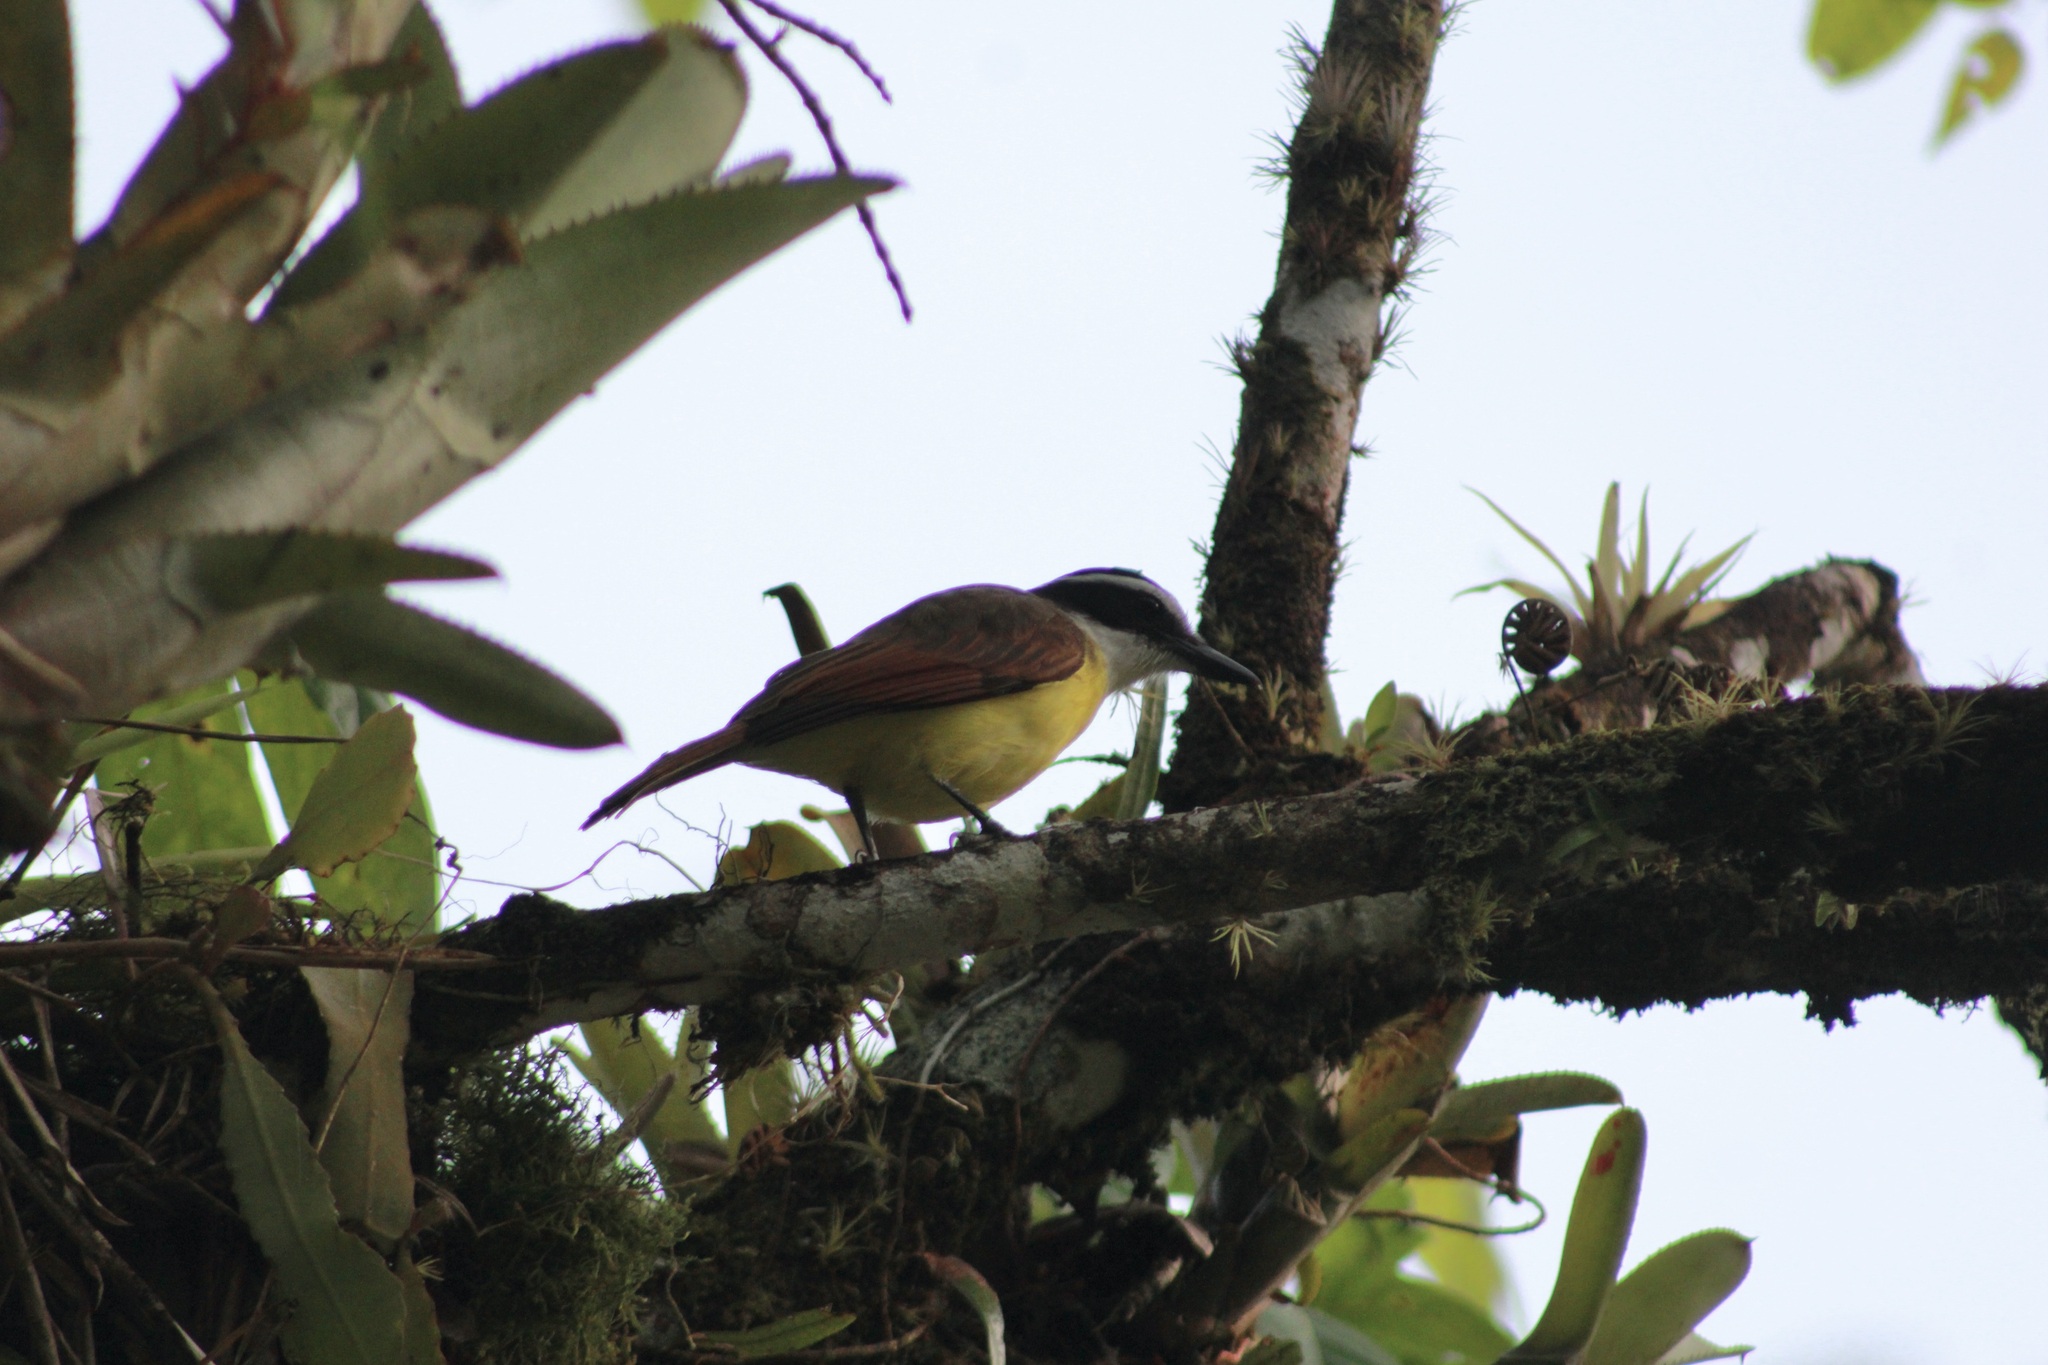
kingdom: Animalia
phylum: Chordata
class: Aves
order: Passeriformes
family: Tyrannidae
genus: Pitangus
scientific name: Pitangus sulphuratus
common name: Great kiskadee
